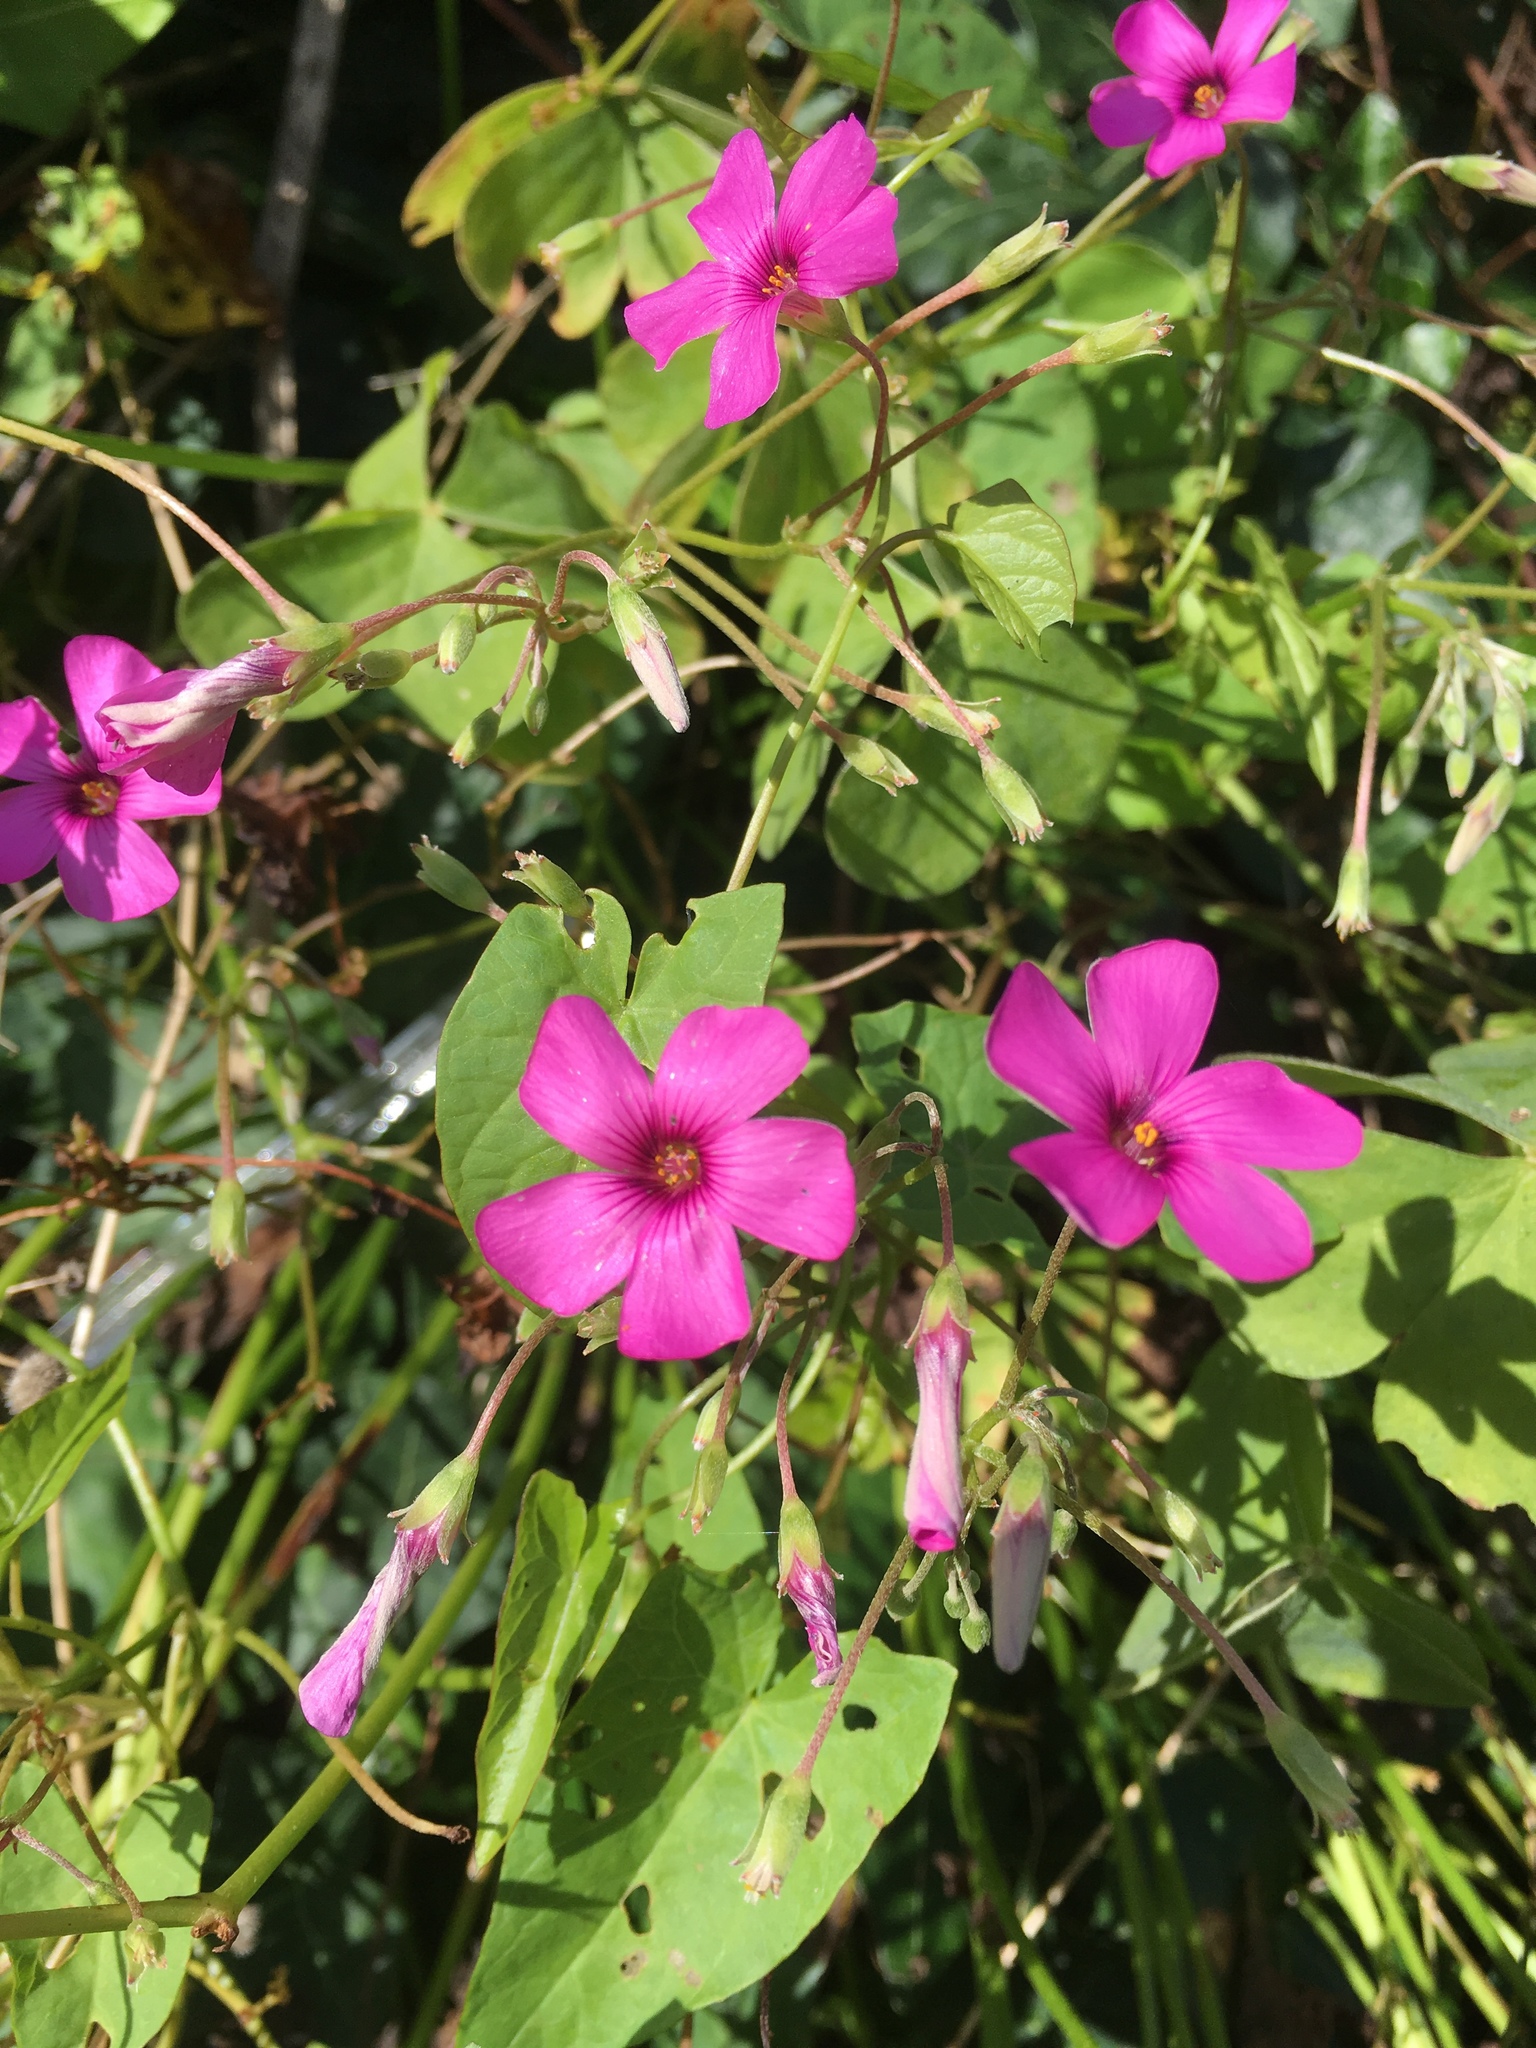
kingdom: Plantae
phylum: Tracheophyta
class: Magnoliopsida
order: Oxalidales
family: Oxalidaceae
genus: Oxalis
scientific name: Oxalis articulata
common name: Pink-sorrel
